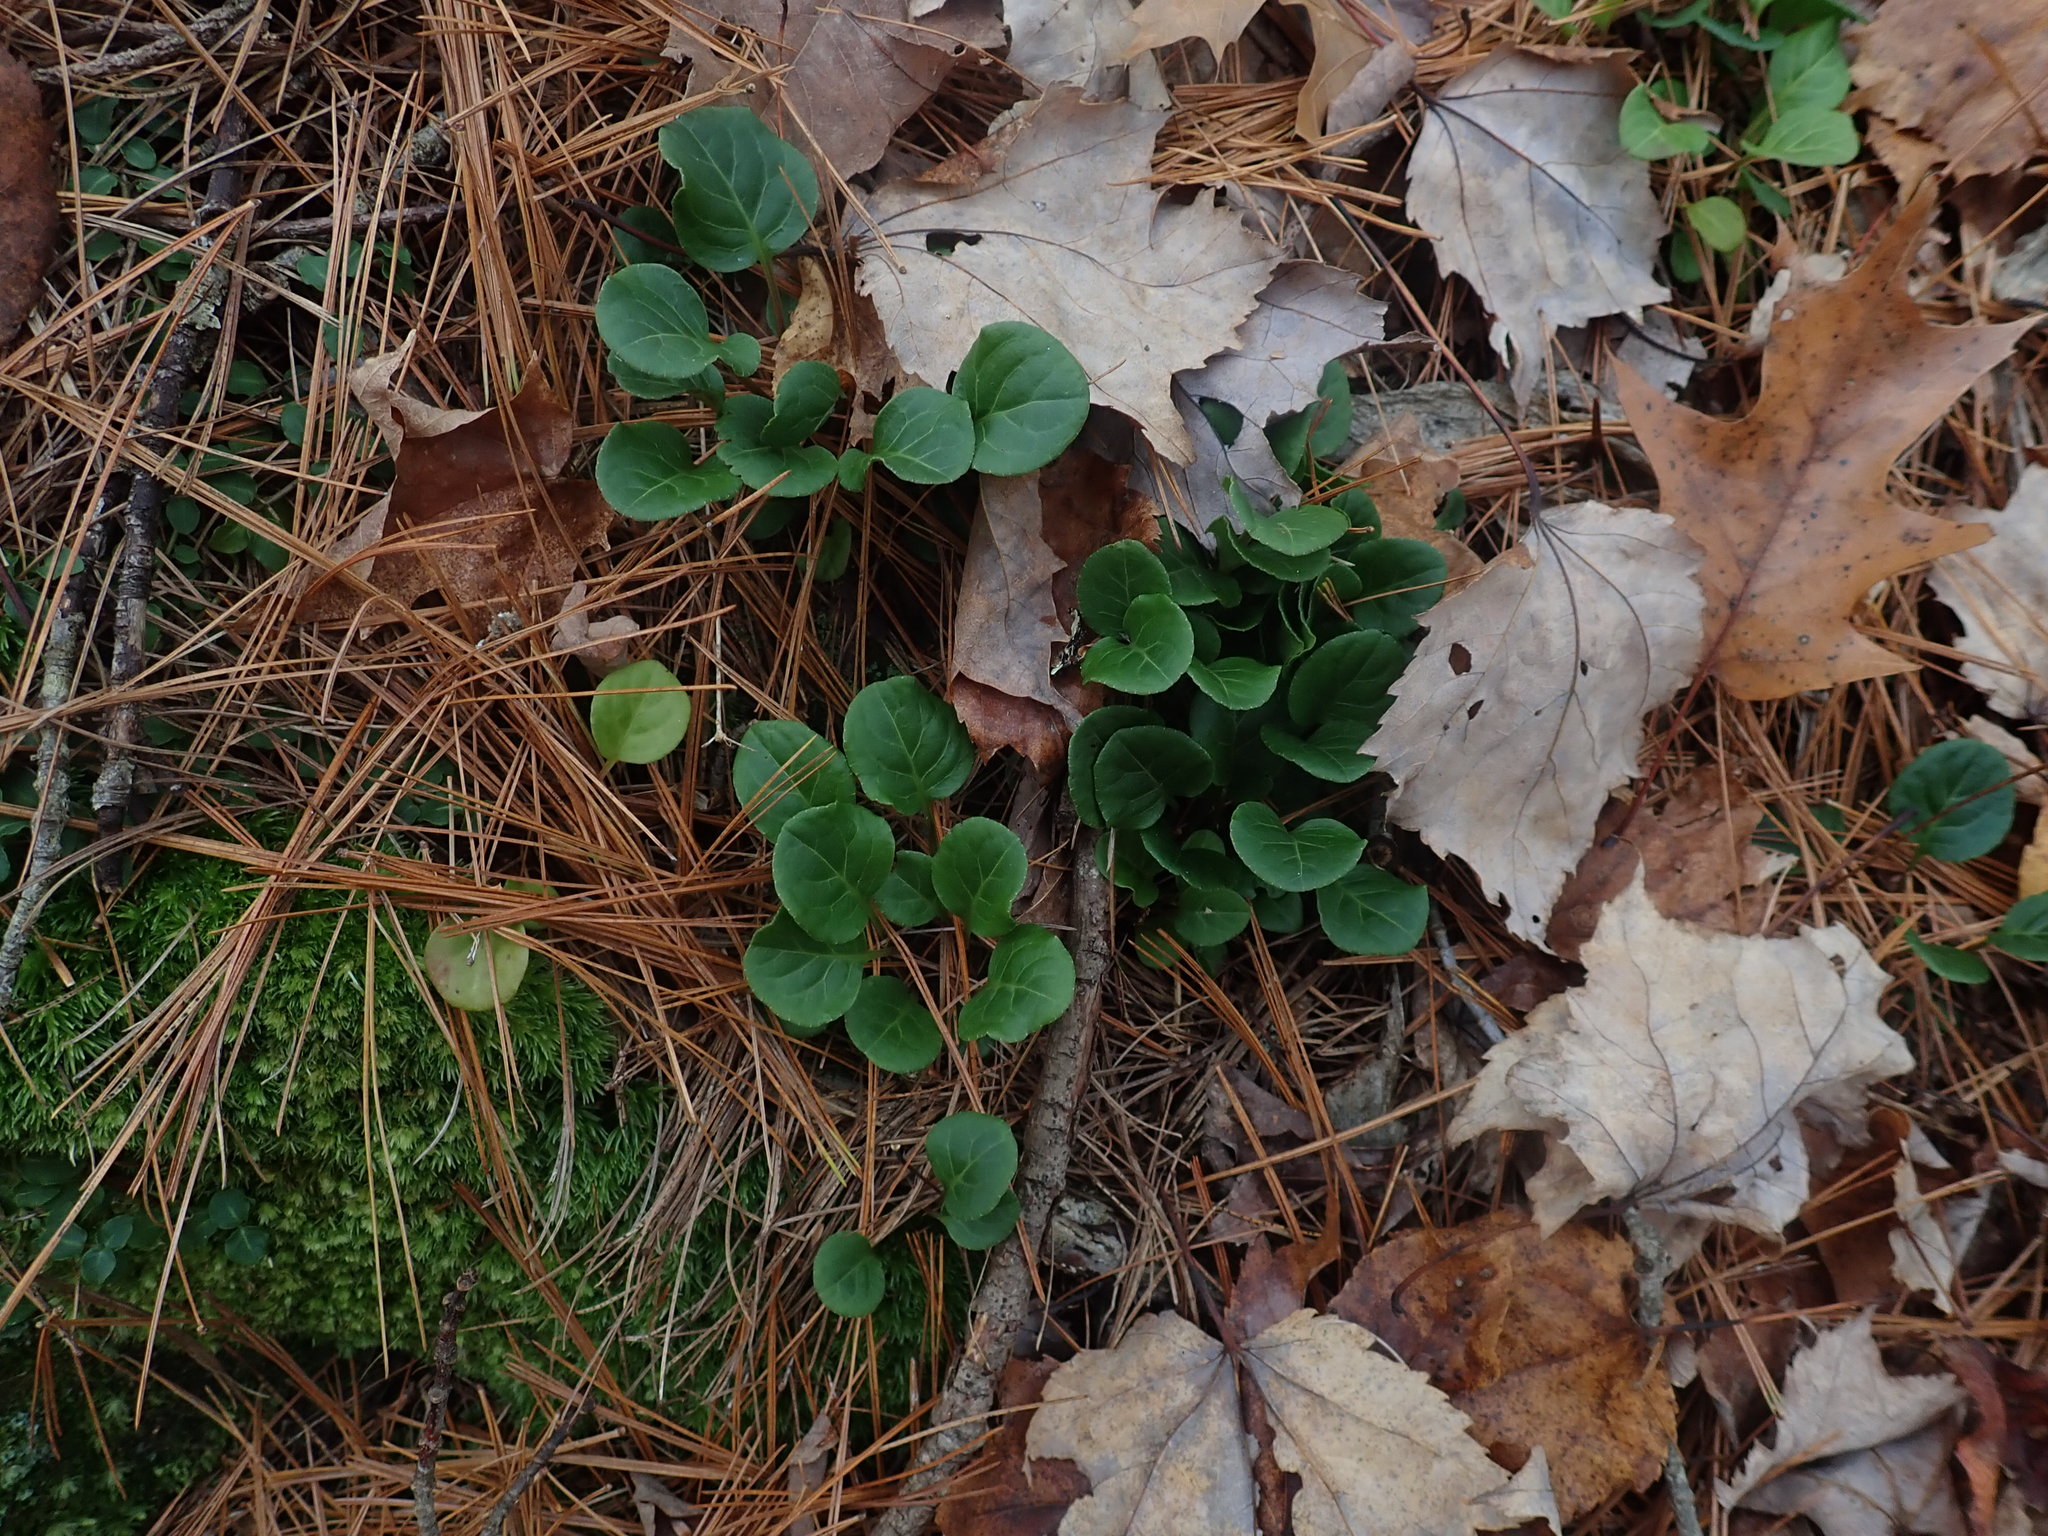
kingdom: Plantae
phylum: Tracheophyta
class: Magnoliopsida
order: Ericales
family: Ericaceae
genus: Pyrola
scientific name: Pyrola chlorantha
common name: Green wintergreen
